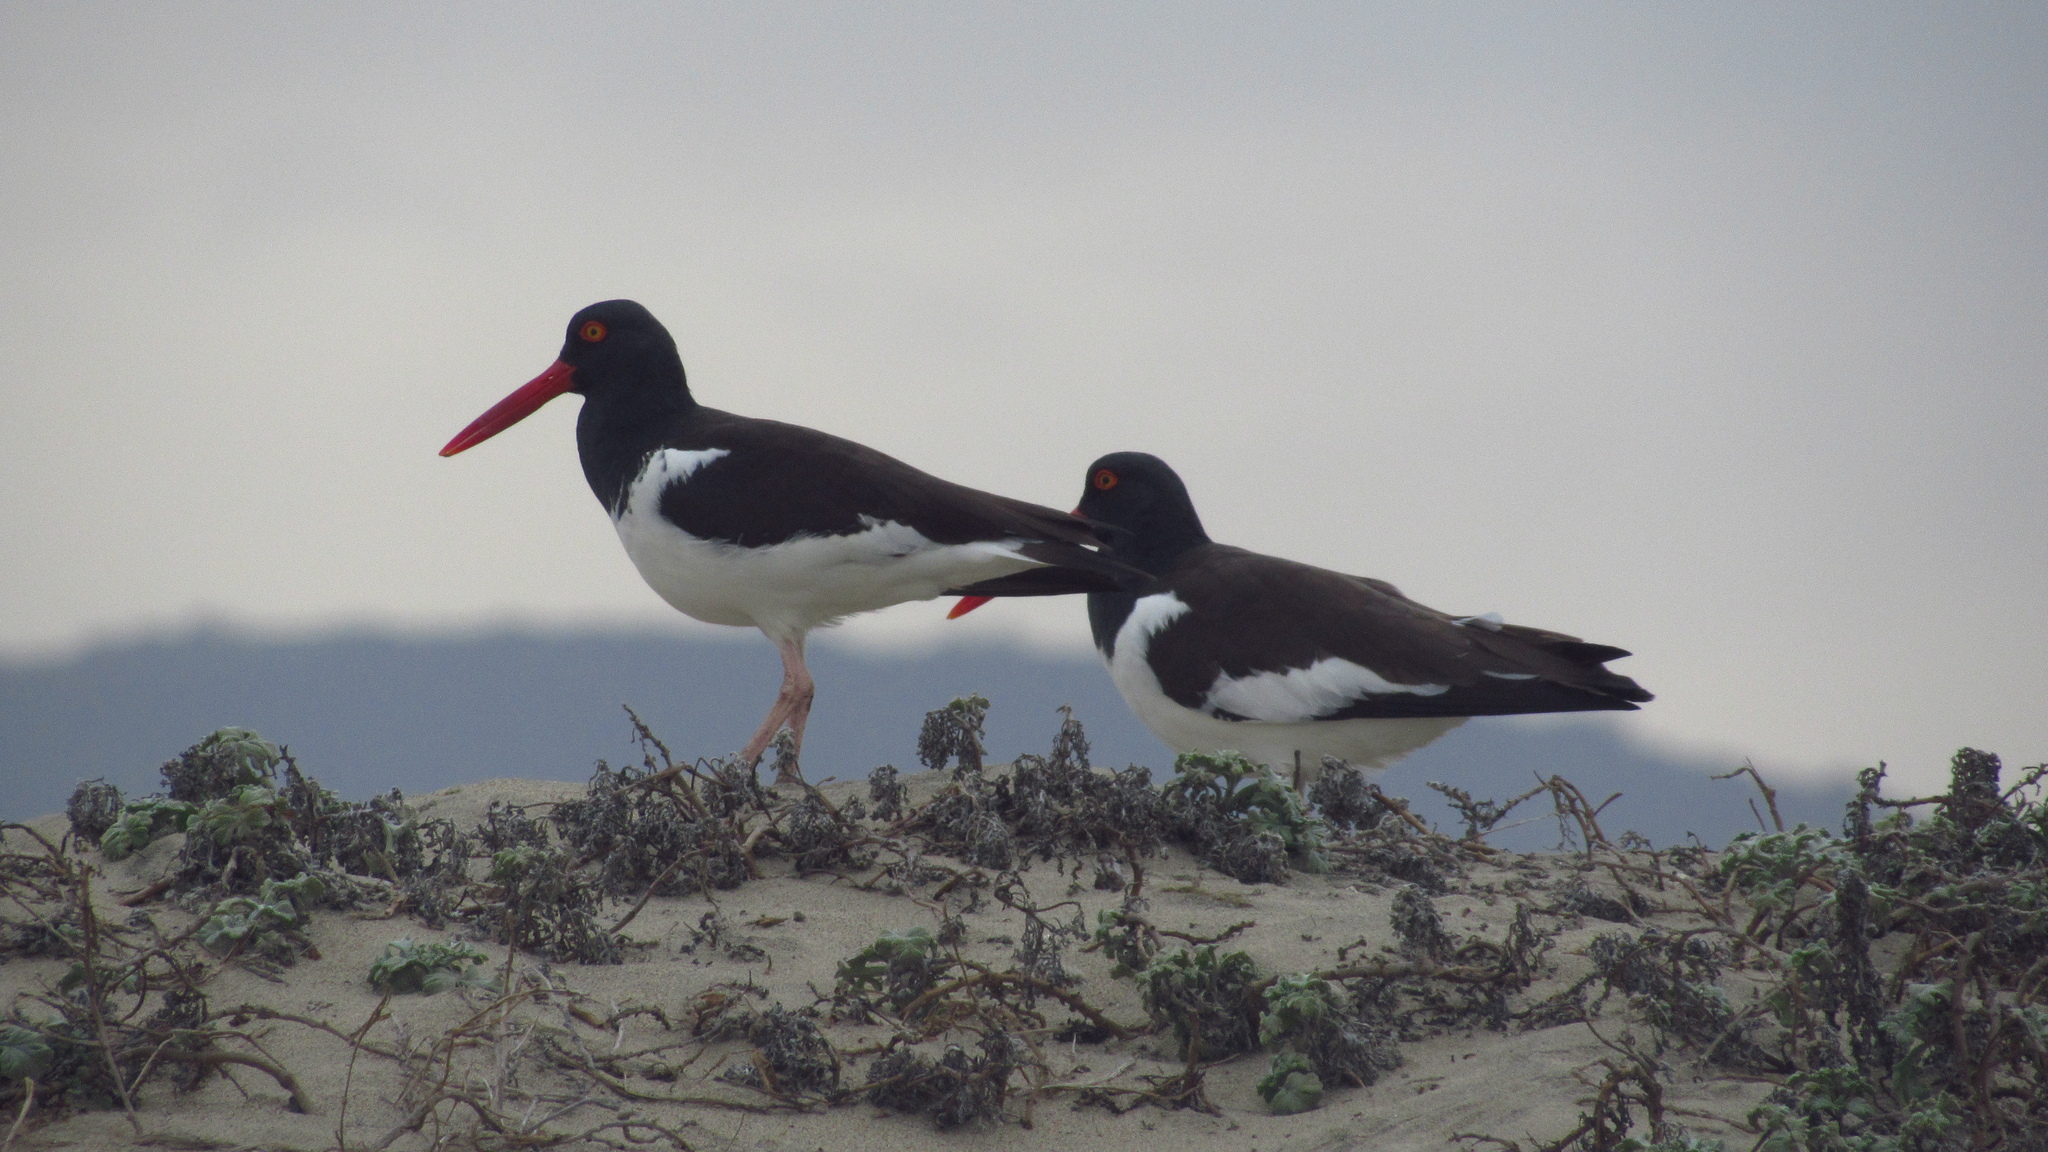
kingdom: Animalia
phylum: Chordata
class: Aves
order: Charadriiformes
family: Haematopodidae
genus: Haematopus
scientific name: Haematopus palliatus
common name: American oystercatcher
